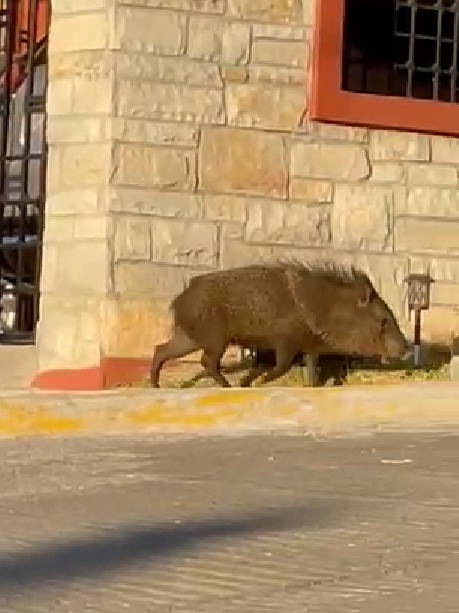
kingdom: Animalia
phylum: Chordata
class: Mammalia
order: Artiodactyla
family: Tayassuidae
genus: Pecari
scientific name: Pecari tajacu
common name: Collared peccary
